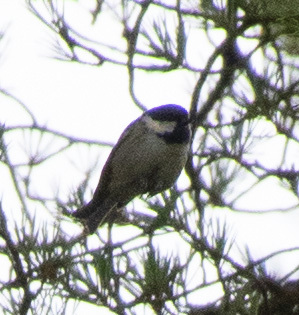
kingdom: Animalia
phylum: Chordata
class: Aves
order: Passeriformes
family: Paridae
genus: Periparus
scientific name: Periparus ater
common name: Coal tit
